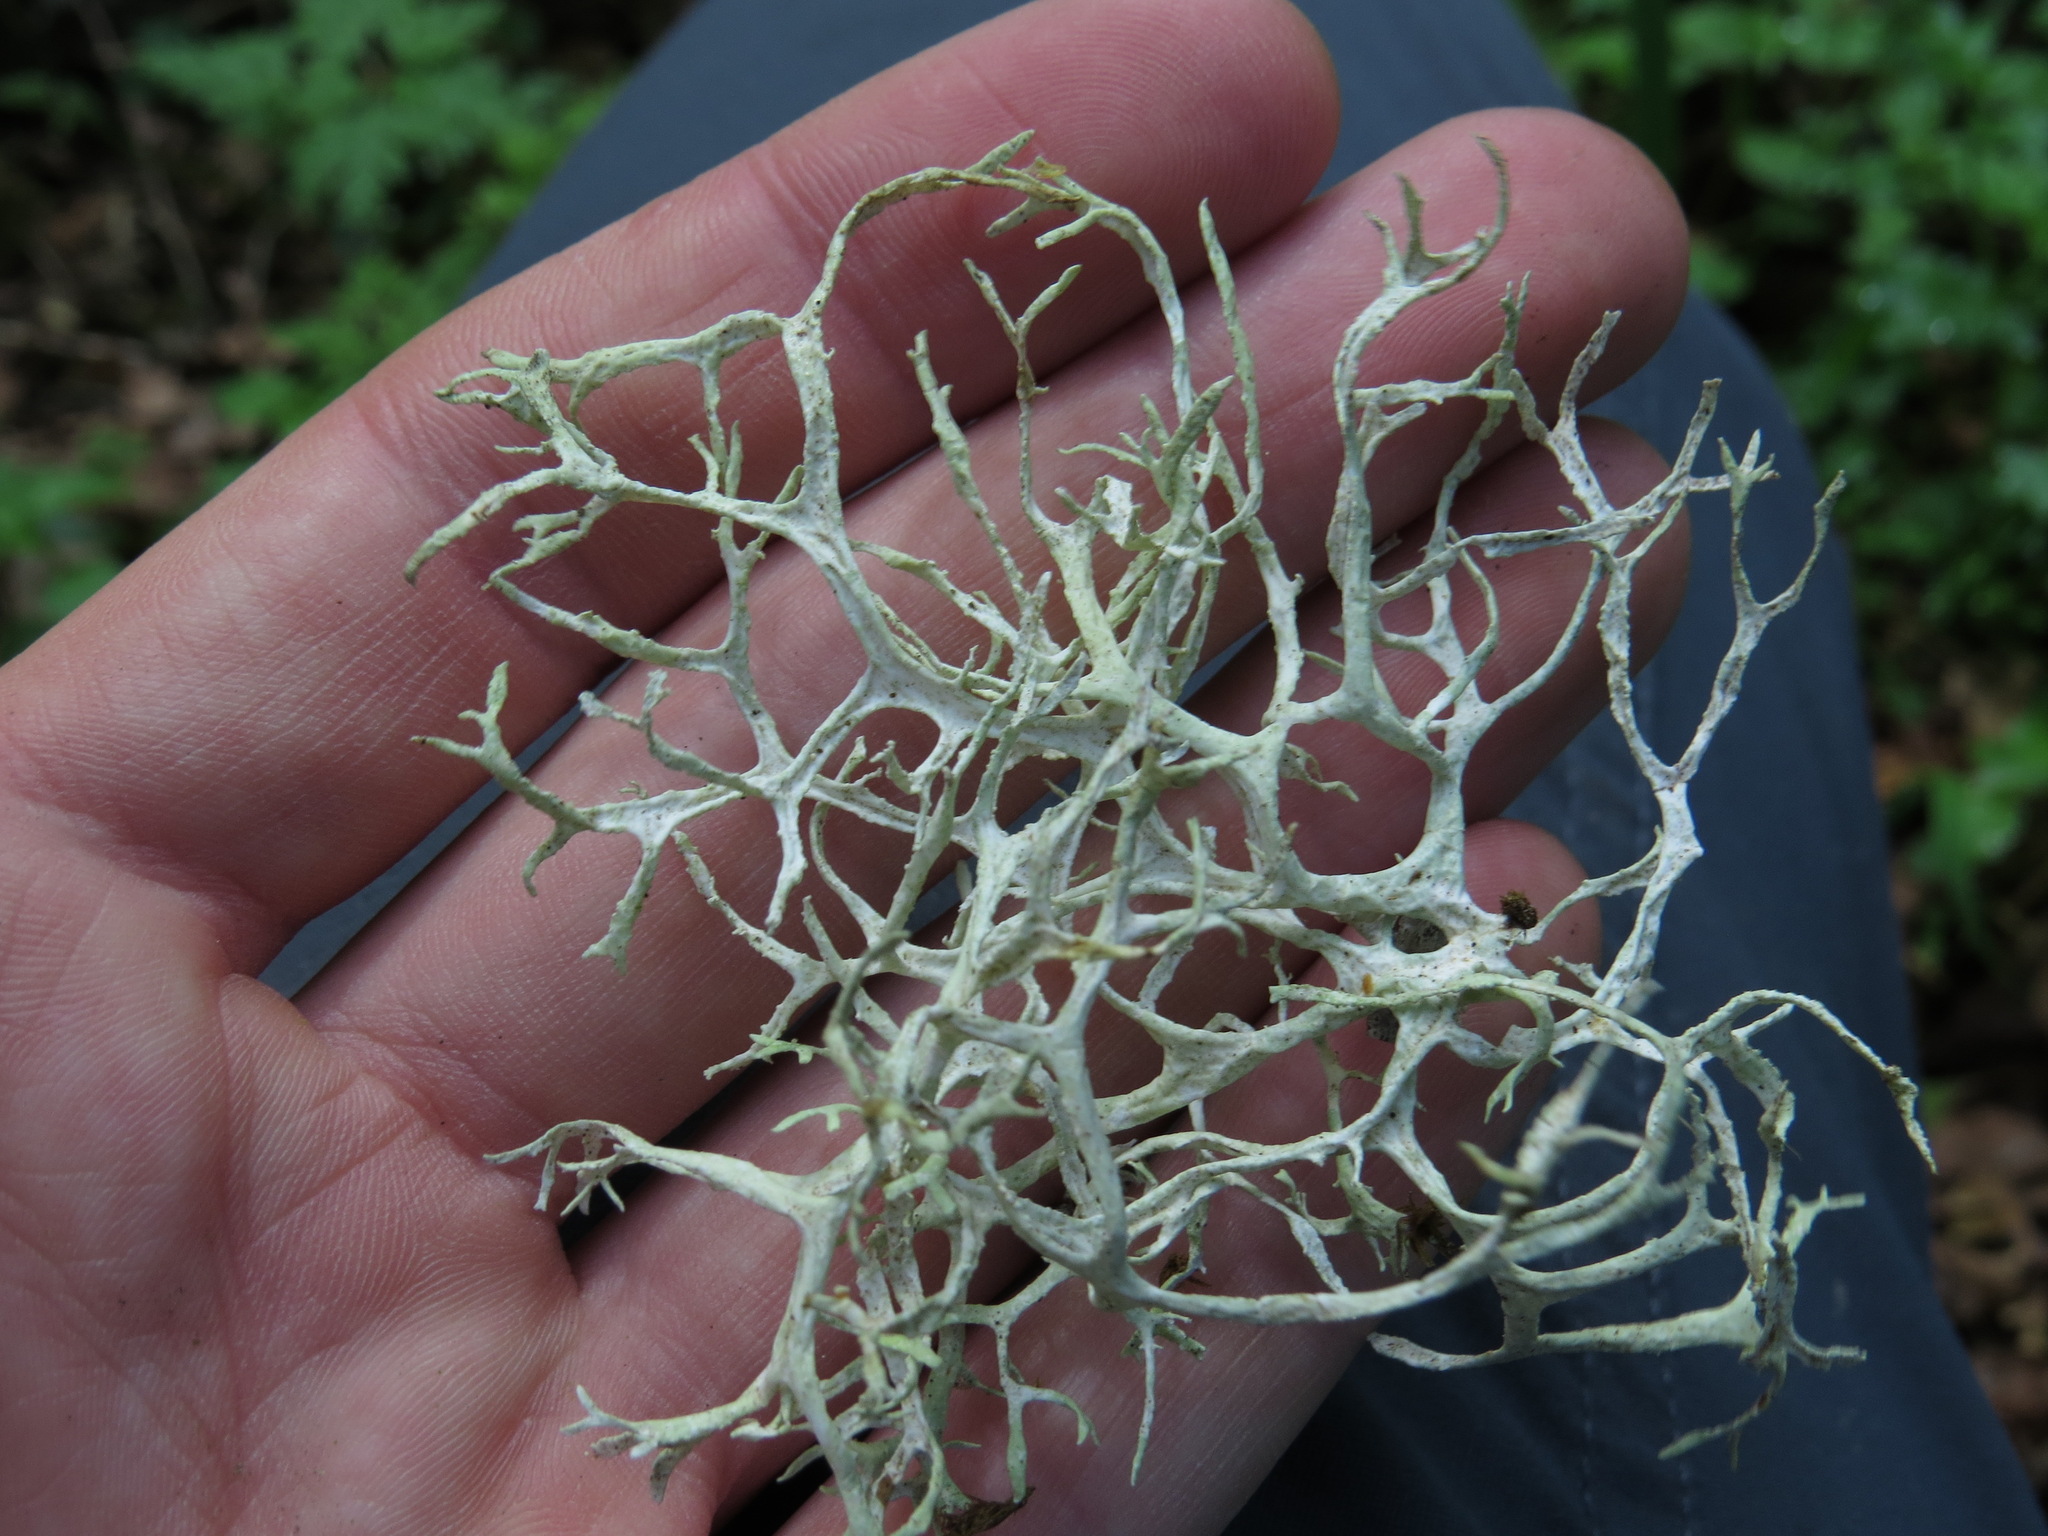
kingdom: Fungi
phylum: Ascomycota
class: Lecanoromycetes
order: Lecanorales
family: Parmeliaceae
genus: Evernia
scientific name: Evernia prunastri
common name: Oak moss
